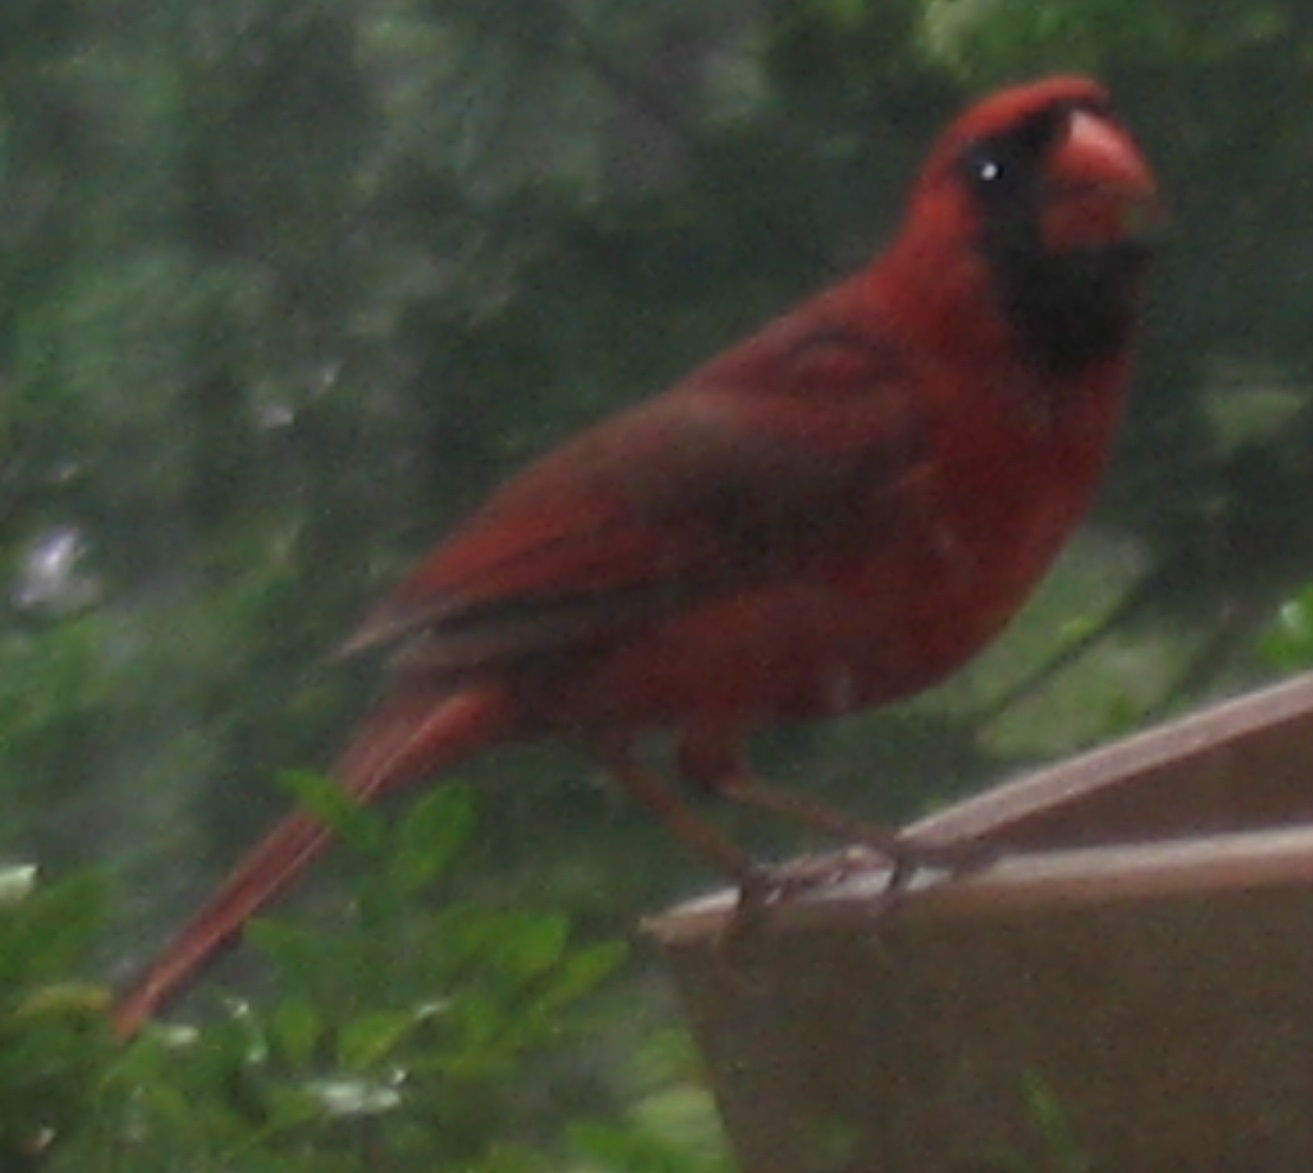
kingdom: Animalia
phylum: Chordata
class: Aves
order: Passeriformes
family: Cardinalidae
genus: Cardinalis
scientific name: Cardinalis cardinalis
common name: Northern cardinal
